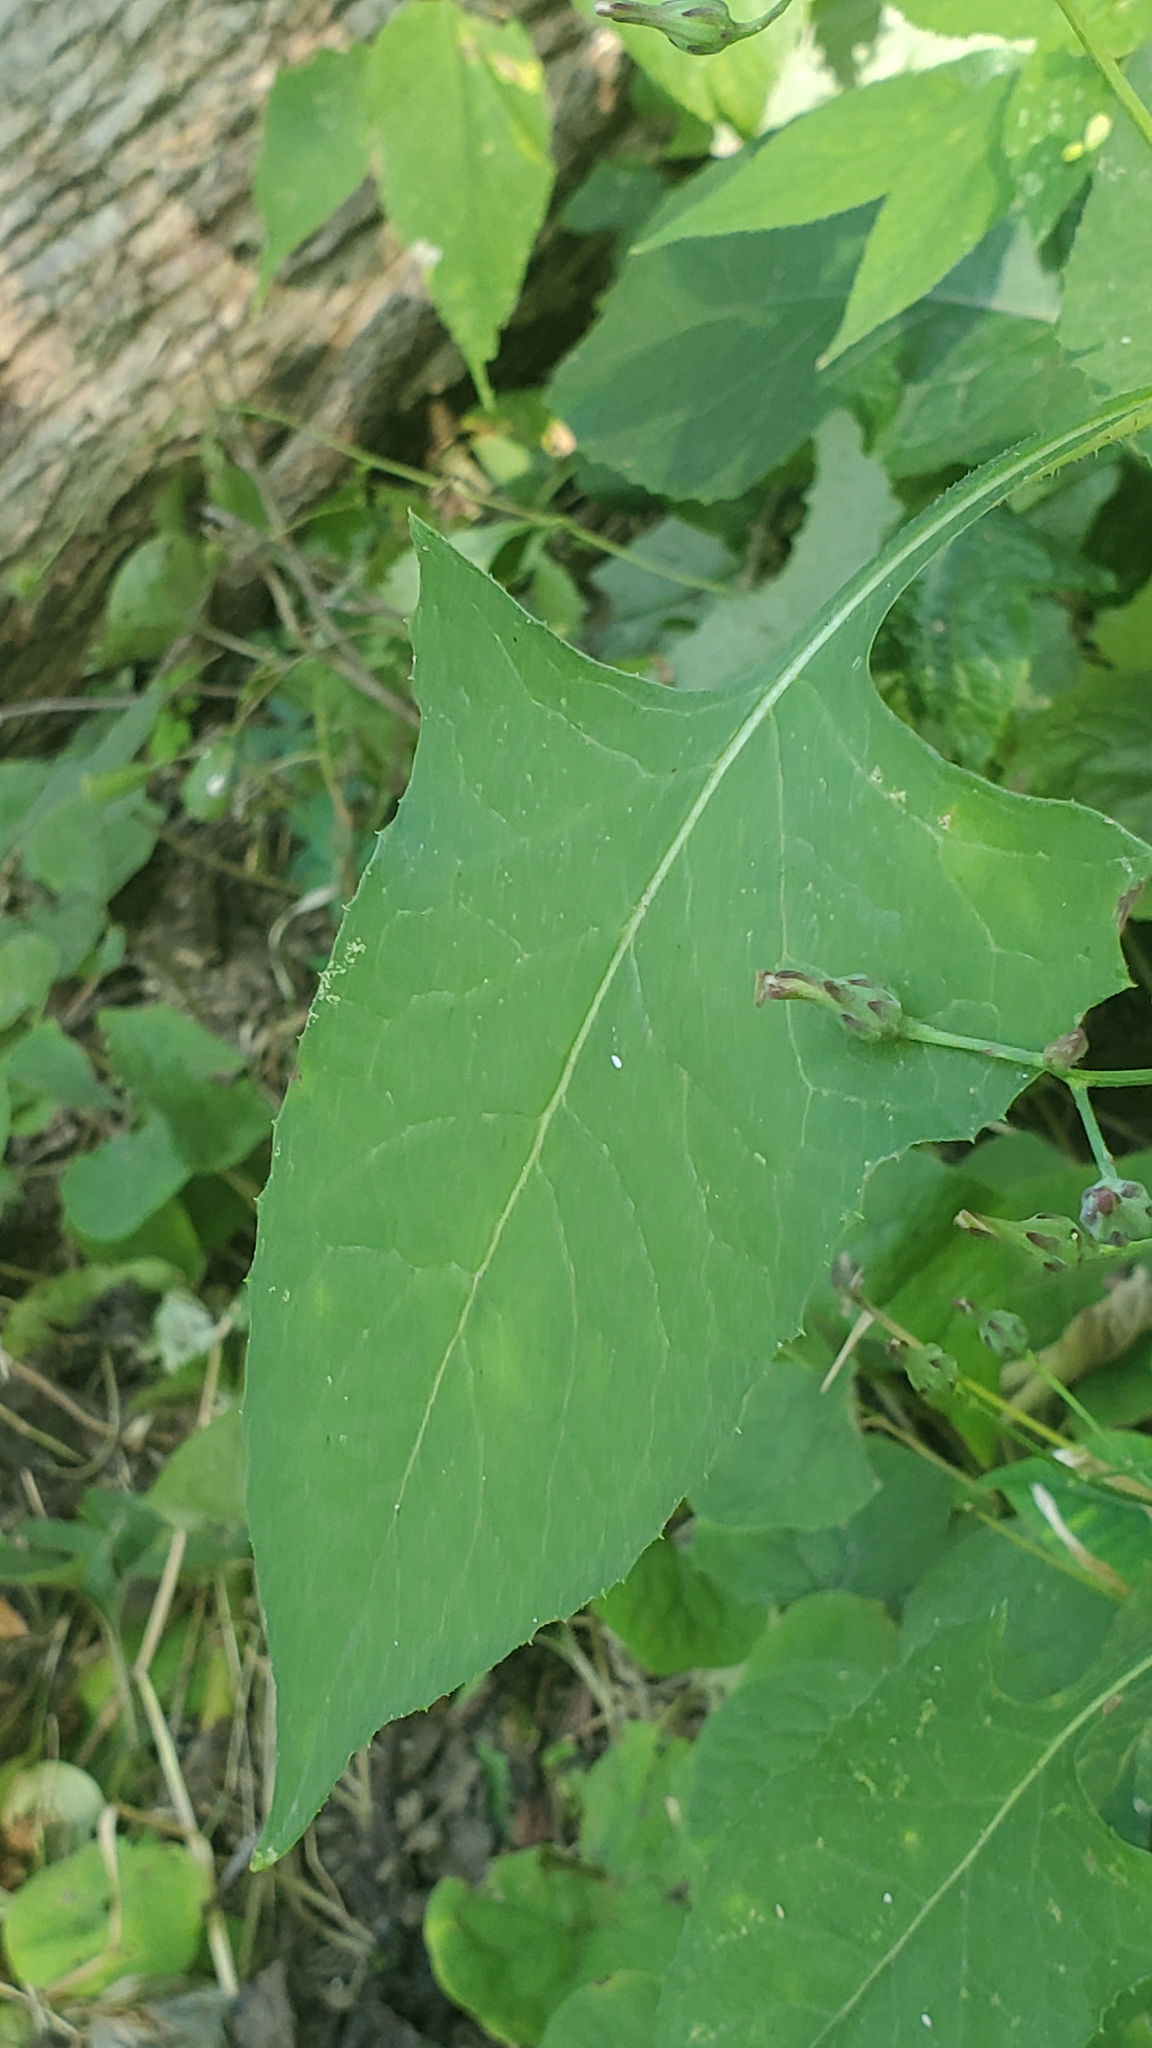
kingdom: Plantae
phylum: Tracheophyta
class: Magnoliopsida
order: Asterales
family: Asteraceae
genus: Lactuca
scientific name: Lactuca floridana
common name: Woodland lettuce
